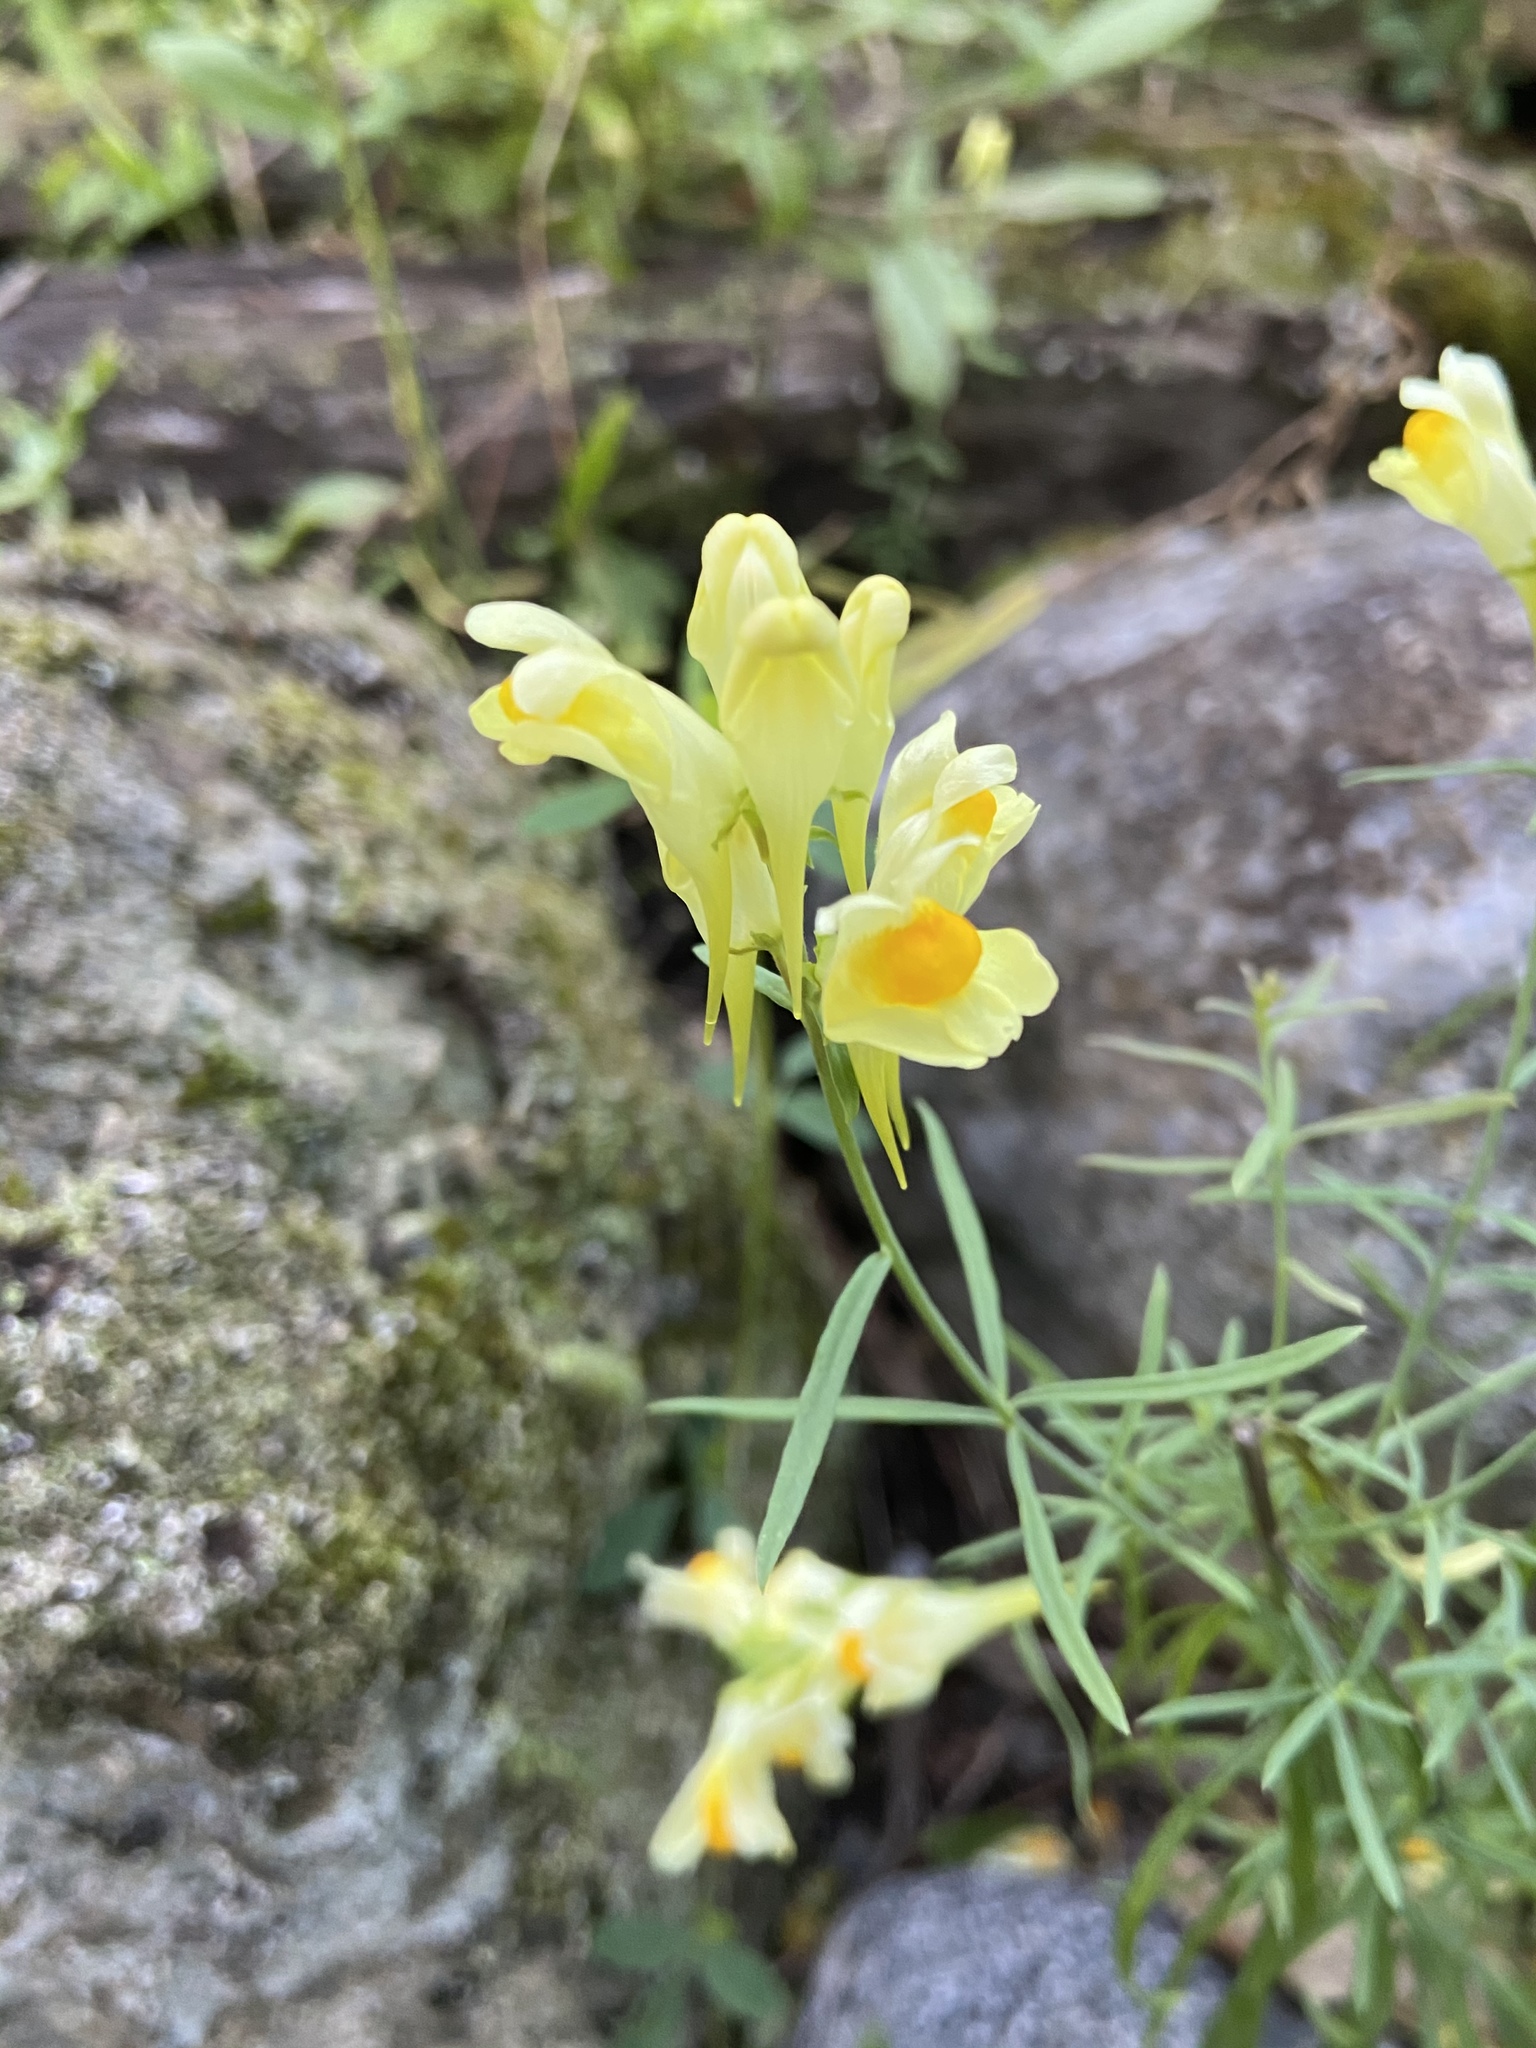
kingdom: Plantae
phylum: Tracheophyta
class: Magnoliopsida
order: Lamiales
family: Plantaginaceae
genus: Linaria
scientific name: Linaria vulgaris
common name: Butter and eggs
